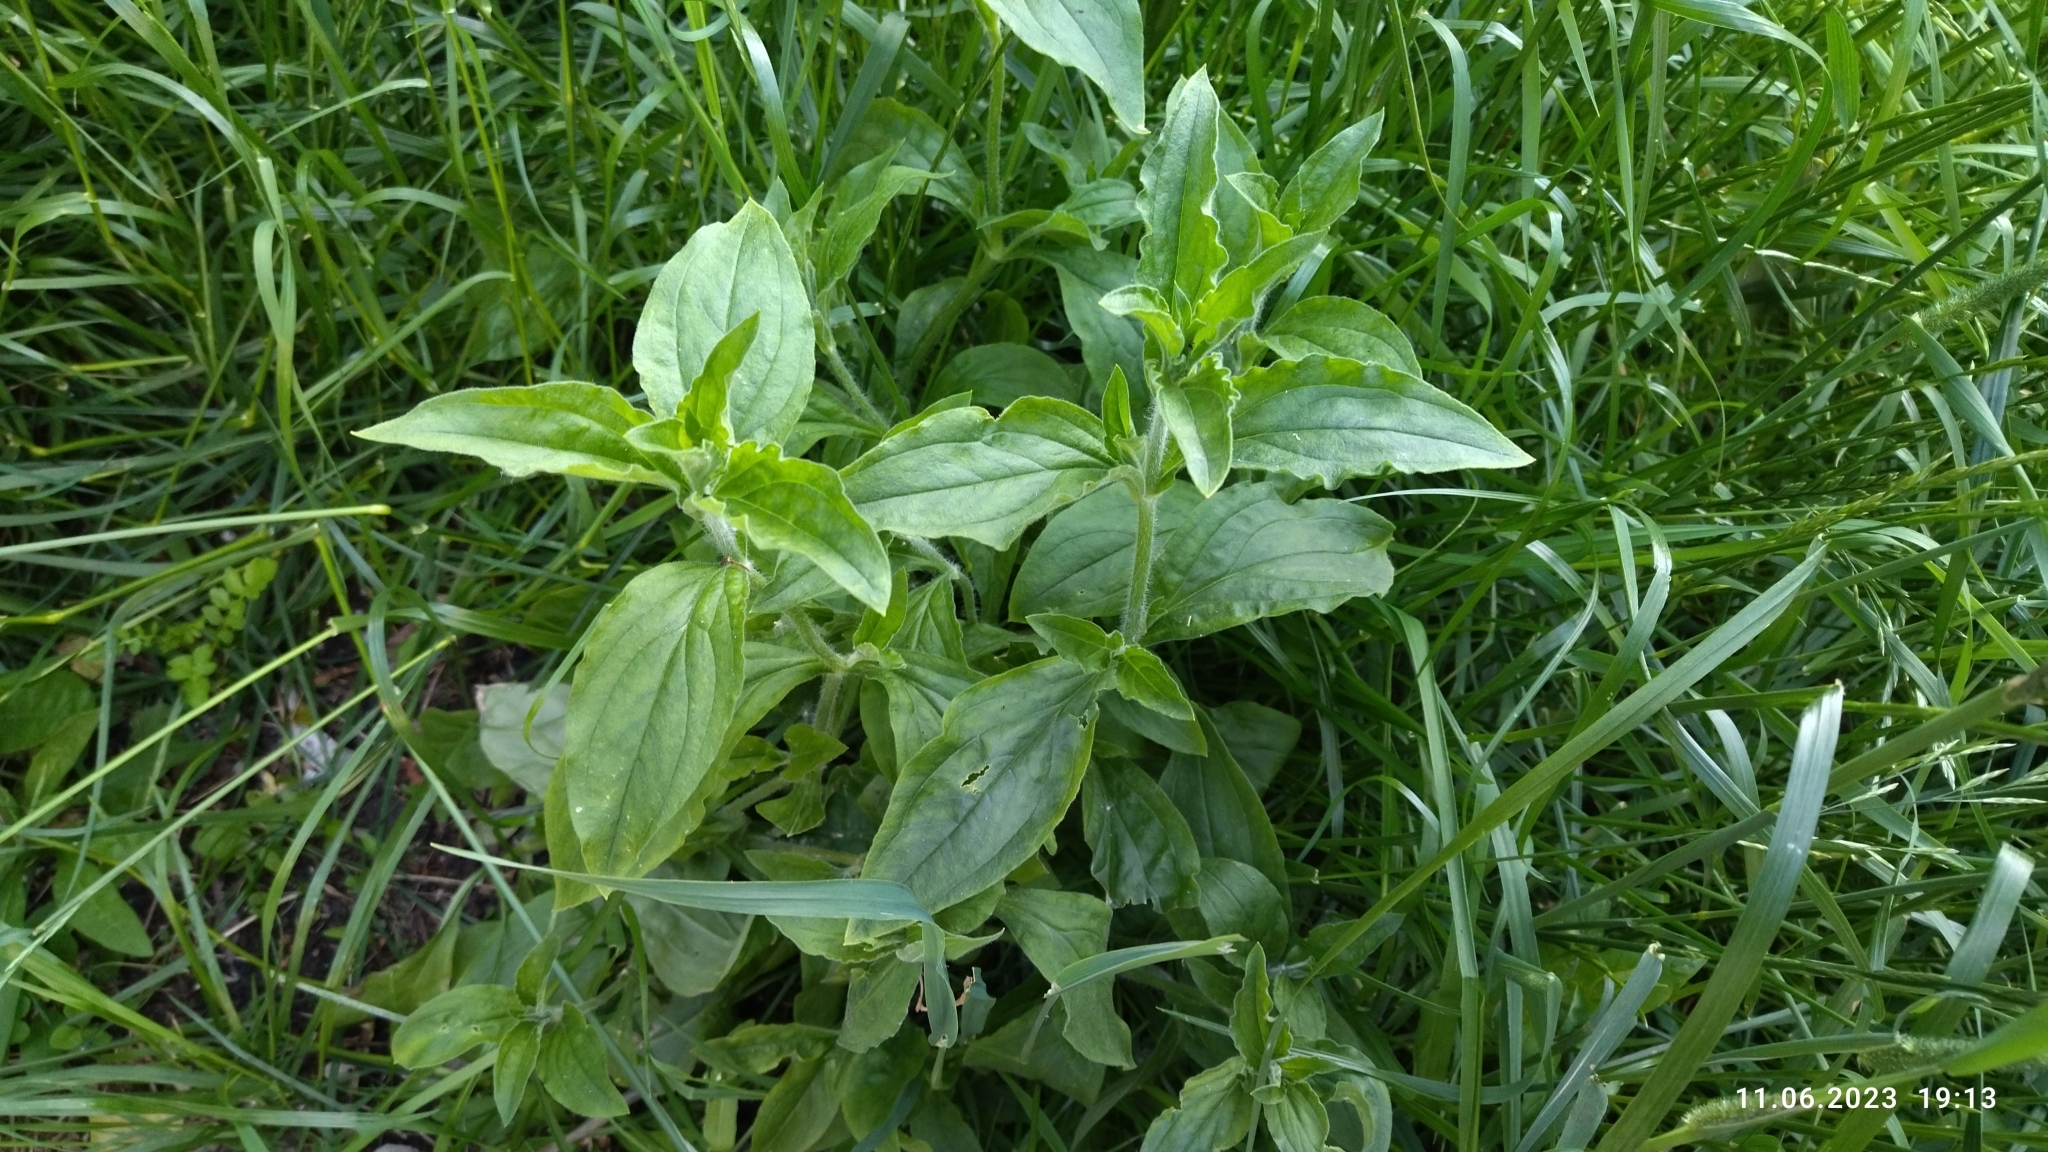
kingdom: Plantae
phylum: Tracheophyta
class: Magnoliopsida
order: Caryophyllales
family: Caryophyllaceae
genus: Silene
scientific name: Silene latifolia
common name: White campion
